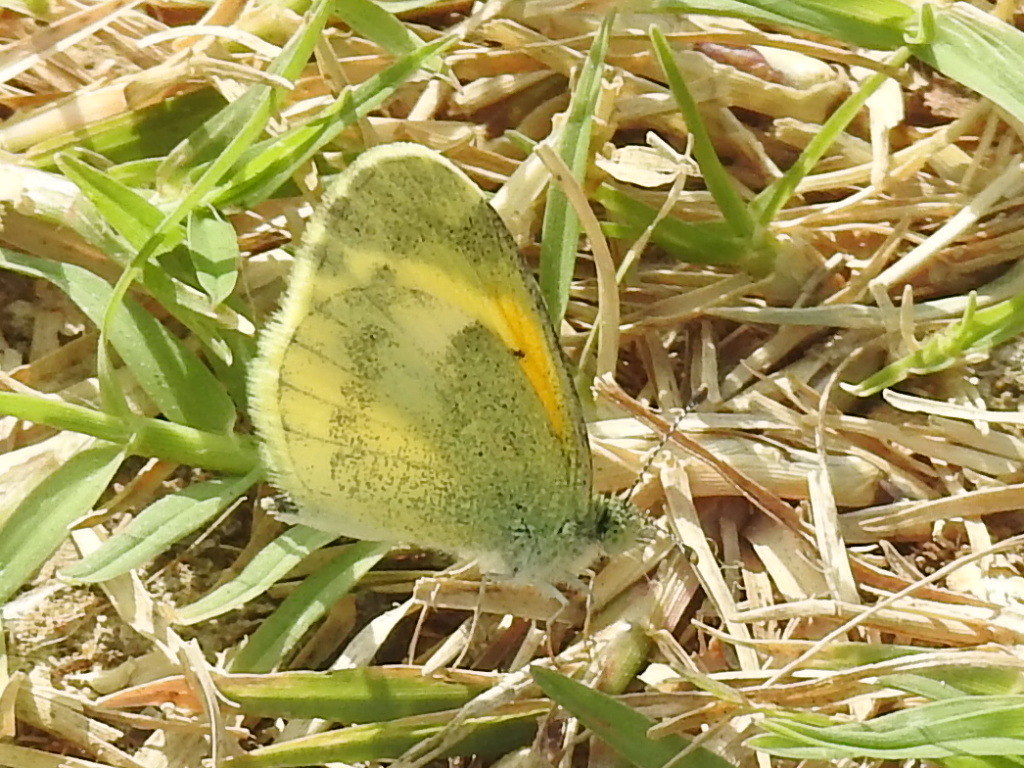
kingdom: Animalia
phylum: Arthropoda
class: Insecta
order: Lepidoptera
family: Pieridae
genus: Nathalis
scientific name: Nathalis iole
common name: Dainty sulphur
